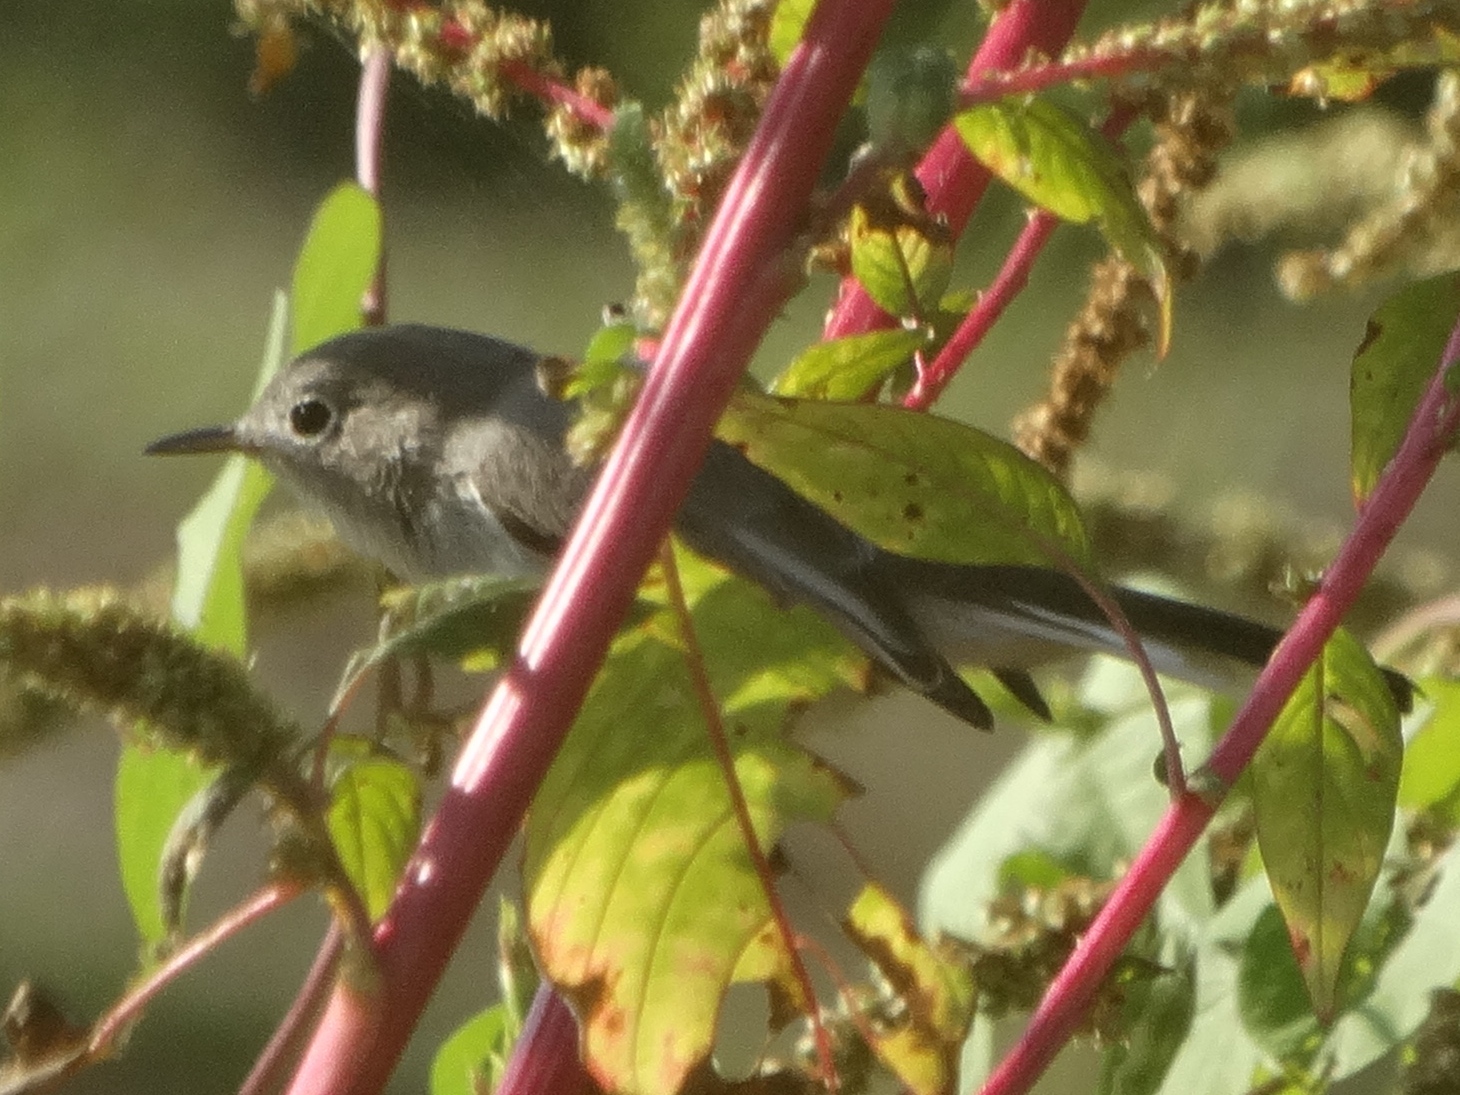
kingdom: Animalia
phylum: Chordata
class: Aves
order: Passeriformes
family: Polioptilidae
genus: Polioptila
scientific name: Polioptila caerulea
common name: Blue-gray gnatcatcher
